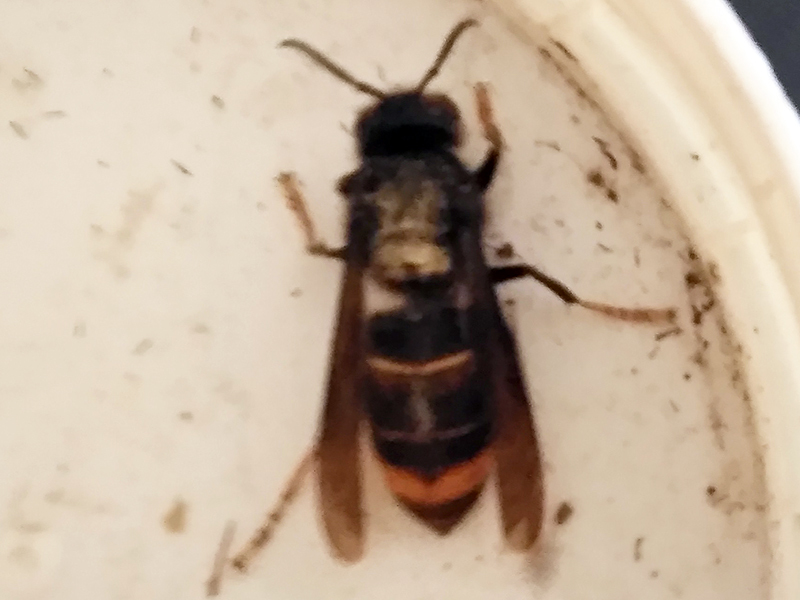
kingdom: Animalia
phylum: Arthropoda
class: Insecta
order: Hymenoptera
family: Vespidae
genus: Vespa
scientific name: Vespa velutina
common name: Asian hornet
